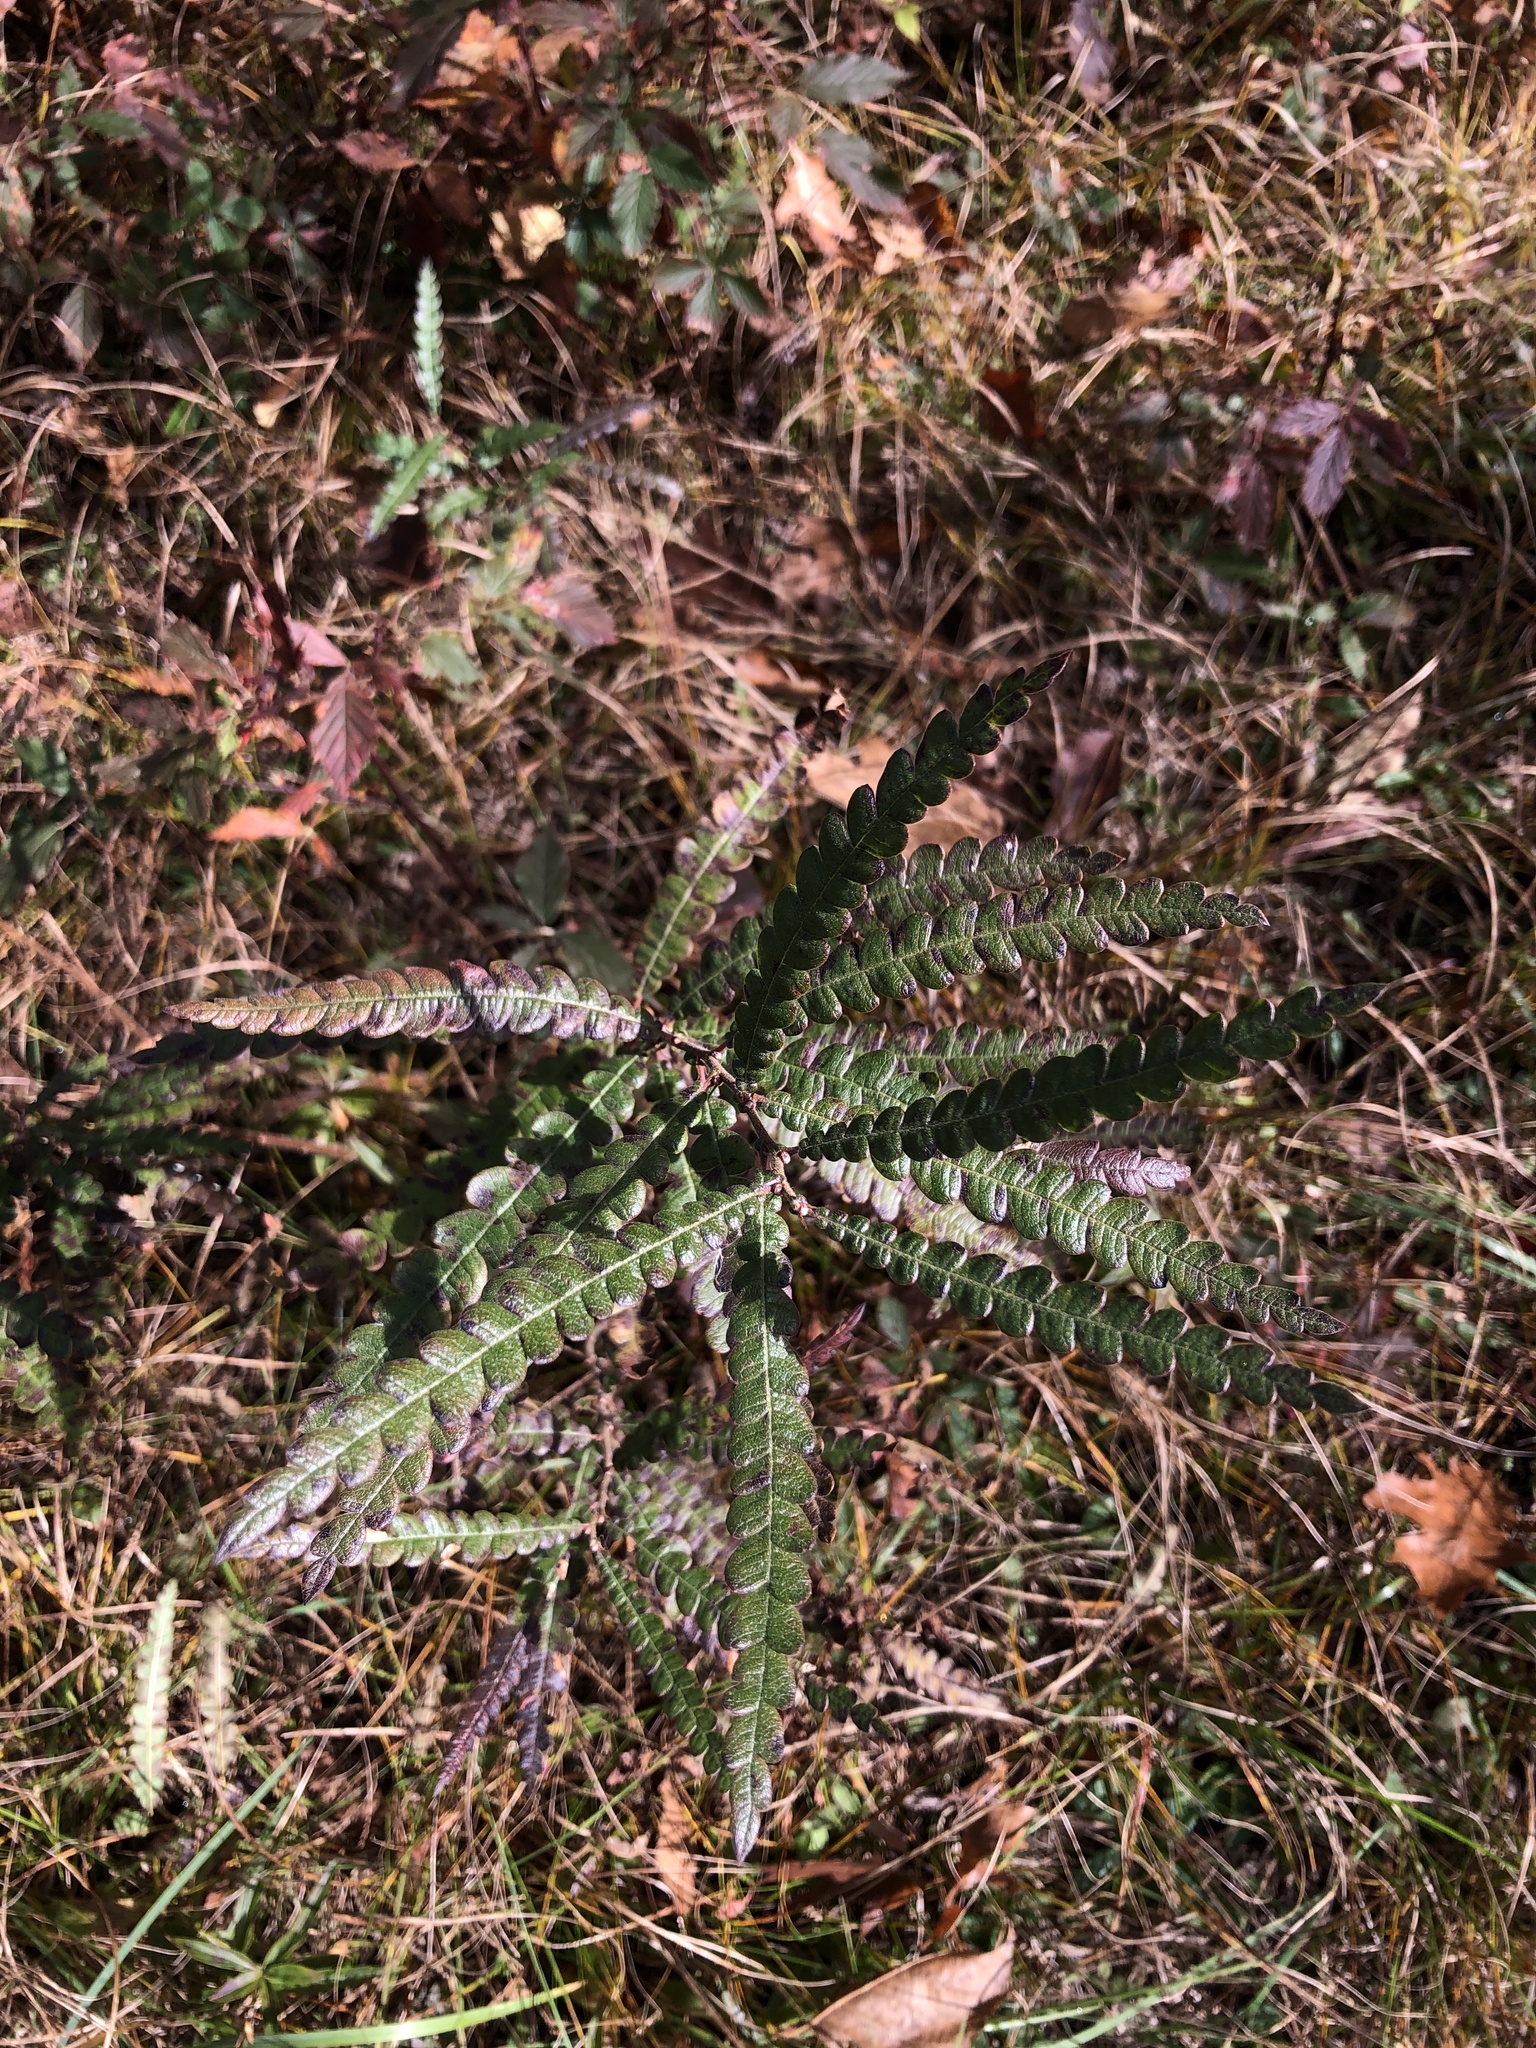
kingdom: Plantae
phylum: Tracheophyta
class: Magnoliopsida
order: Fagales
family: Myricaceae
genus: Comptonia
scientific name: Comptonia peregrina
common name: Sweet-fern
